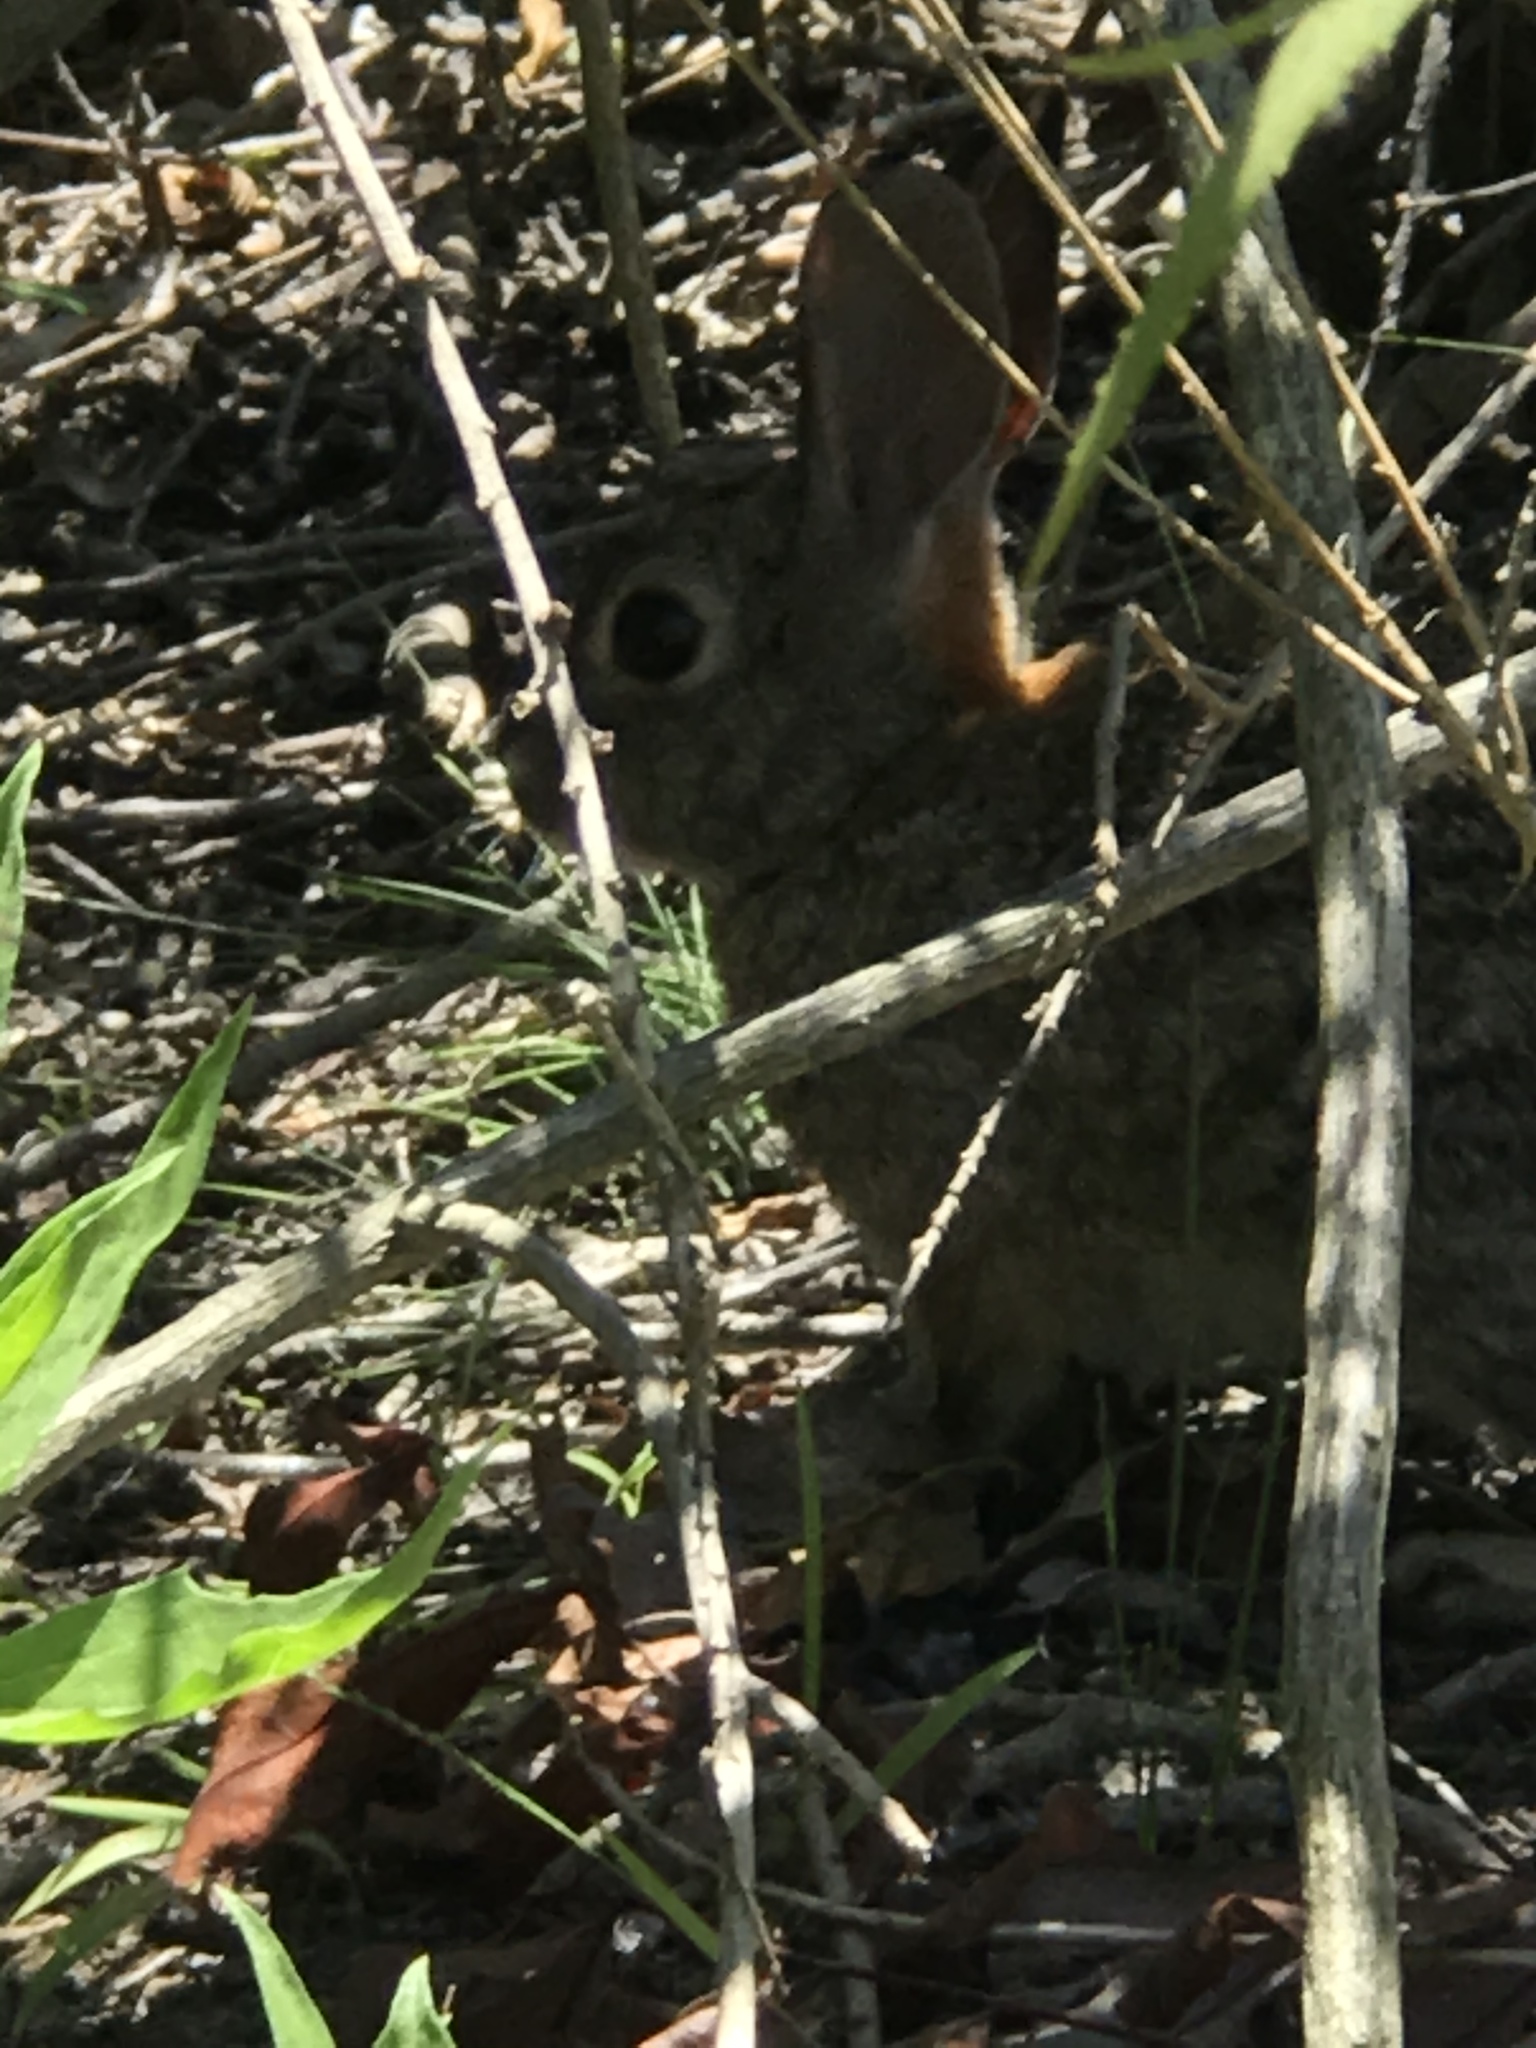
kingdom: Animalia
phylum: Chordata
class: Mammalia
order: Lagomorpha
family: Leporidae
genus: Sylvilagus
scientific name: Sylvilagus audubonii
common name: Desert cottontail
